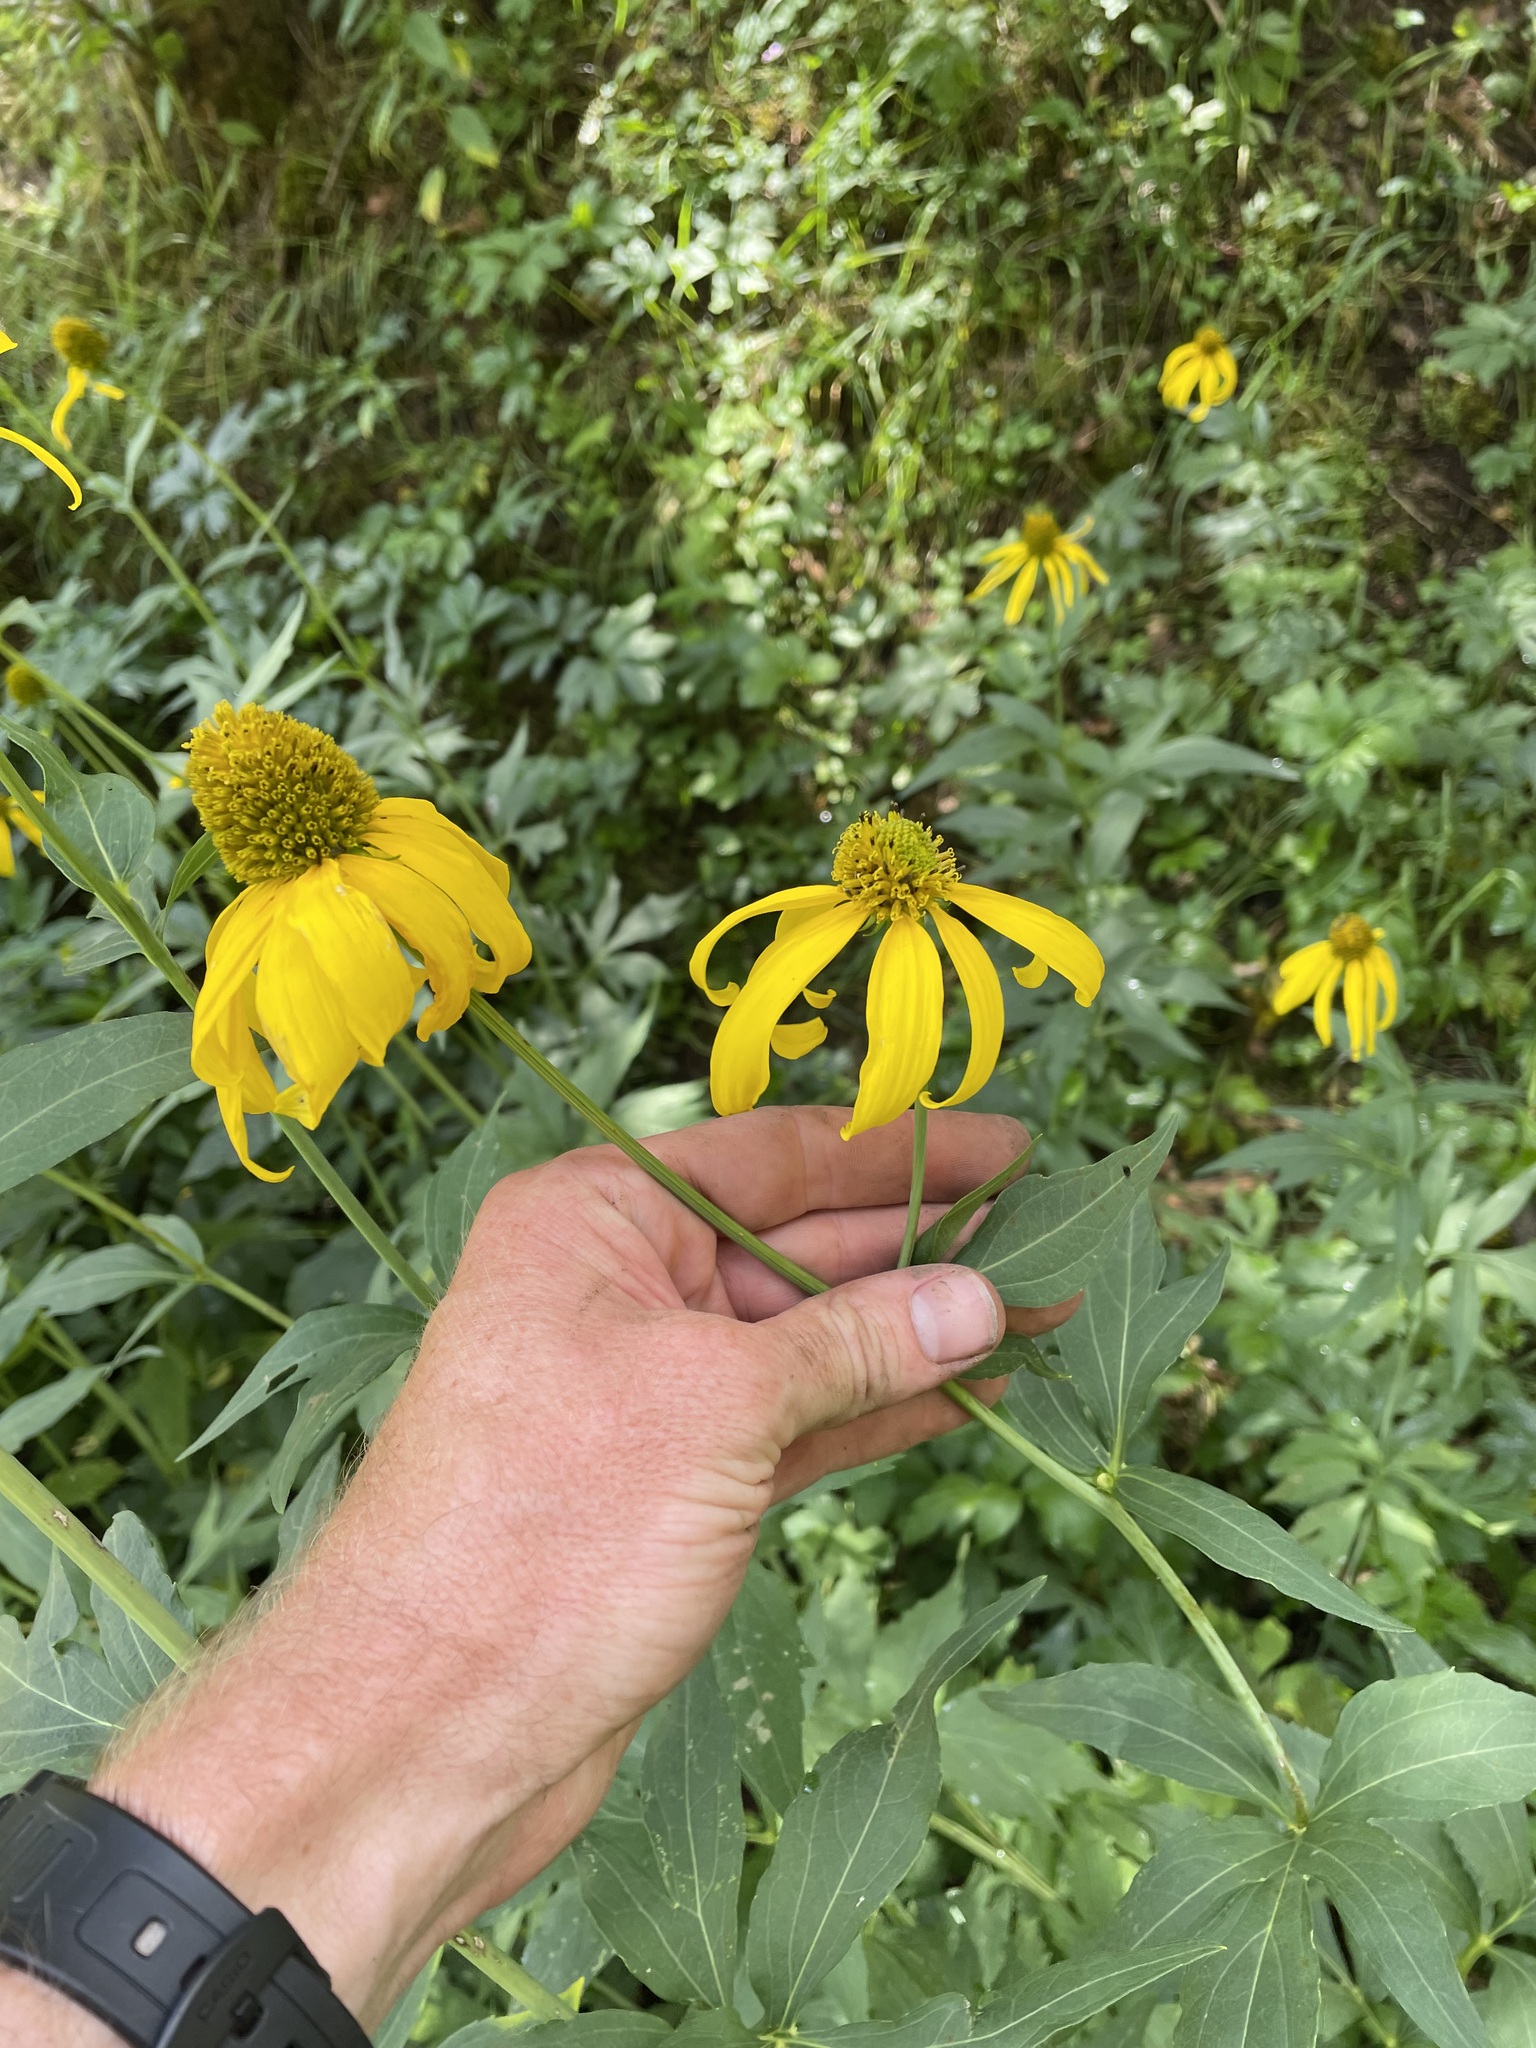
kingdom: Plantae
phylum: Tracheophyta
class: Magnoliopsida
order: Asterales
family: Asteraceae
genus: Rudbeckia
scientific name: Rudbeckia laciniata
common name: Coneflower
